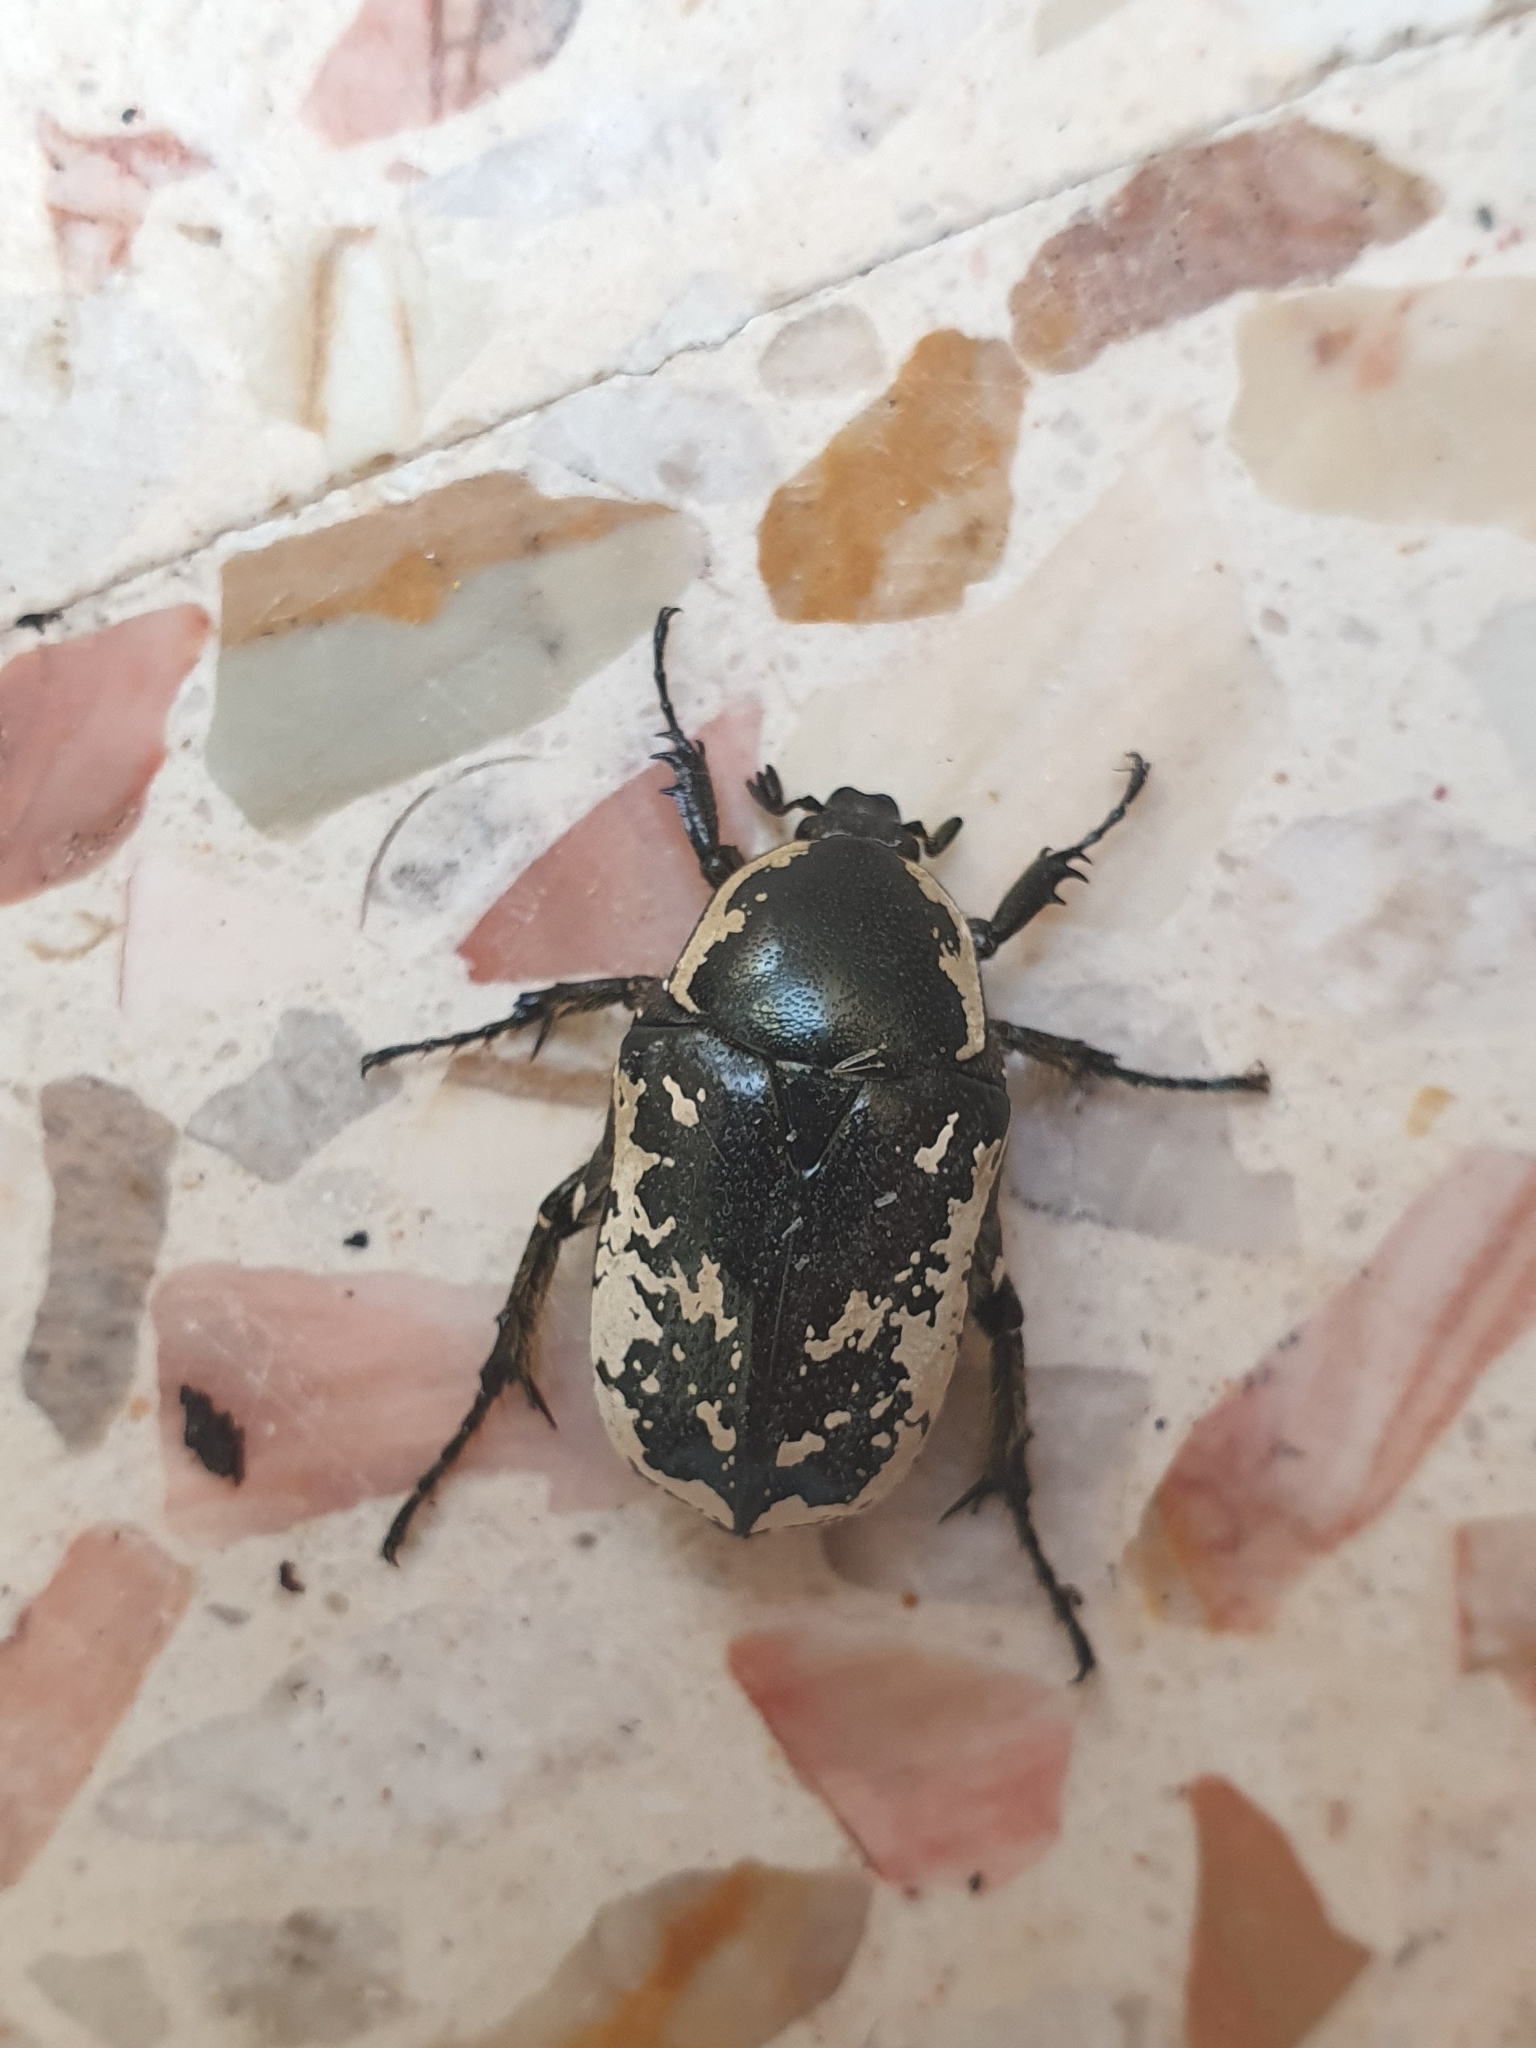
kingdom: Animalia
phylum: Arthropoda
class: Insecta
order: Coleoptera
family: Scarabaeidae
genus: Aethiessa
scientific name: Aethiessa floralis
